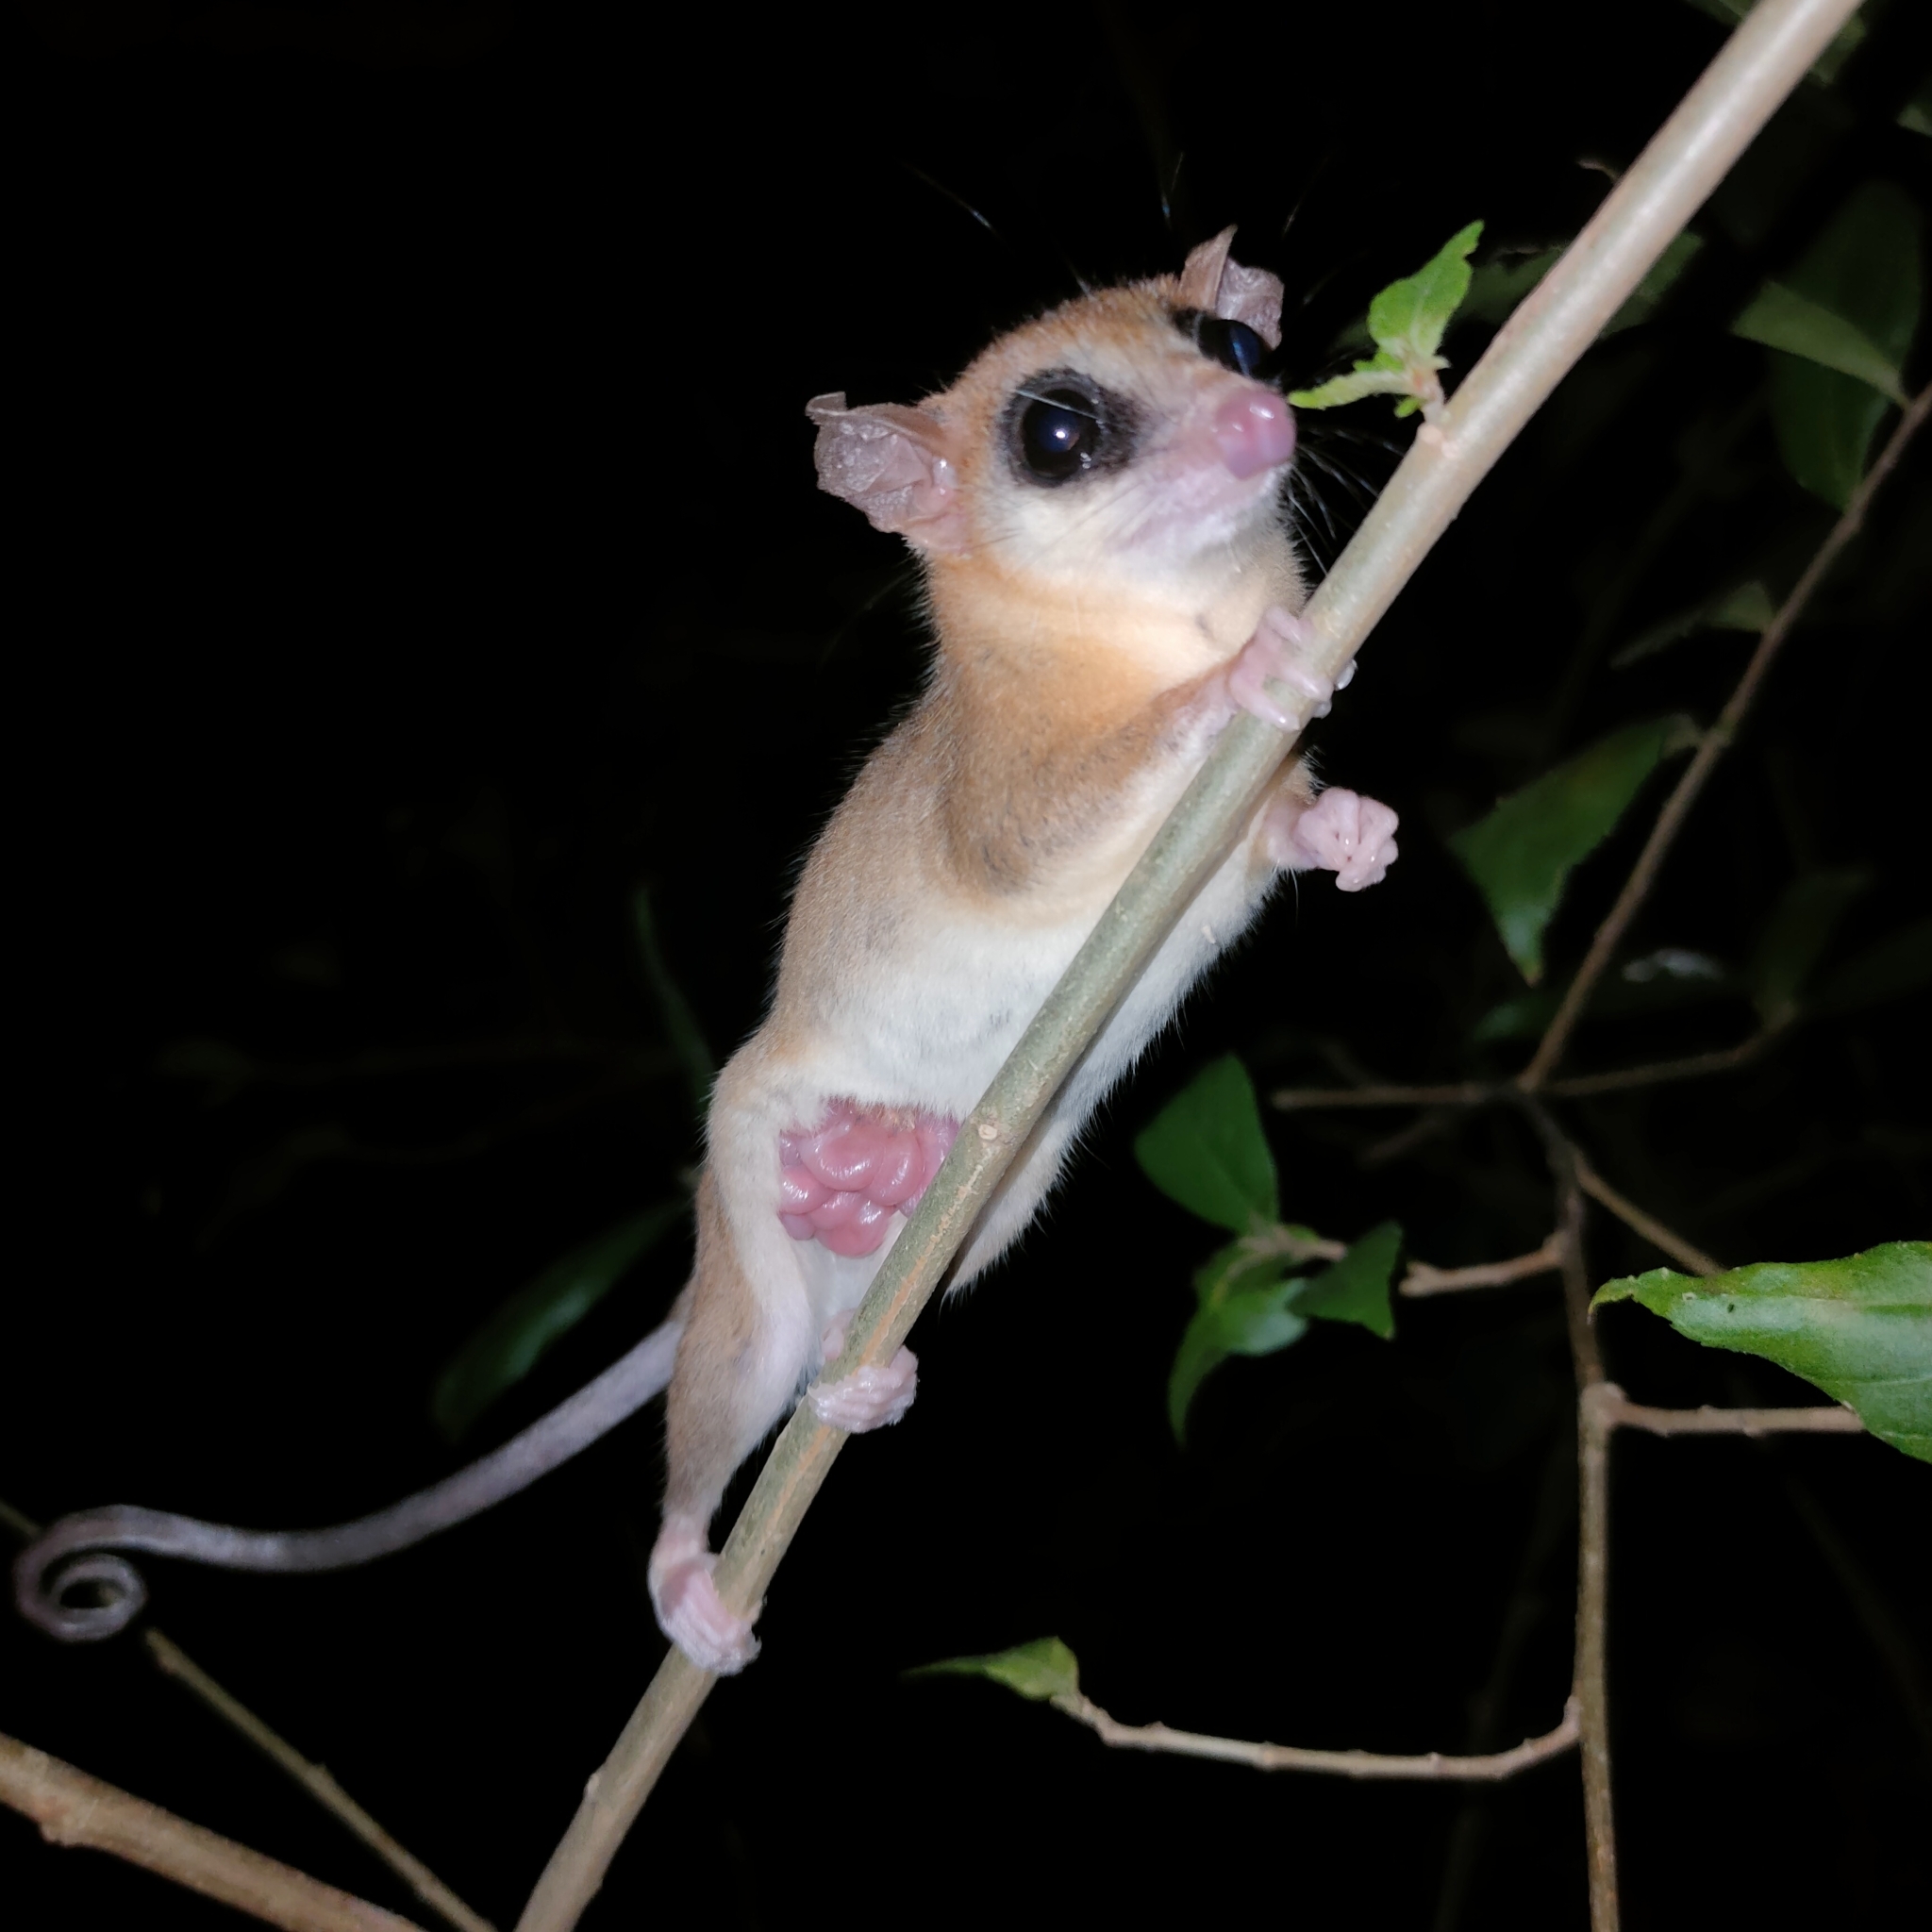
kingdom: Animalia
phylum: Chordata
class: Mammalia
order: Didelphimorphia
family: Didelphidae
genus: Marmosa
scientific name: Marmosa robinsoni
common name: Robinson's mouse opossum
